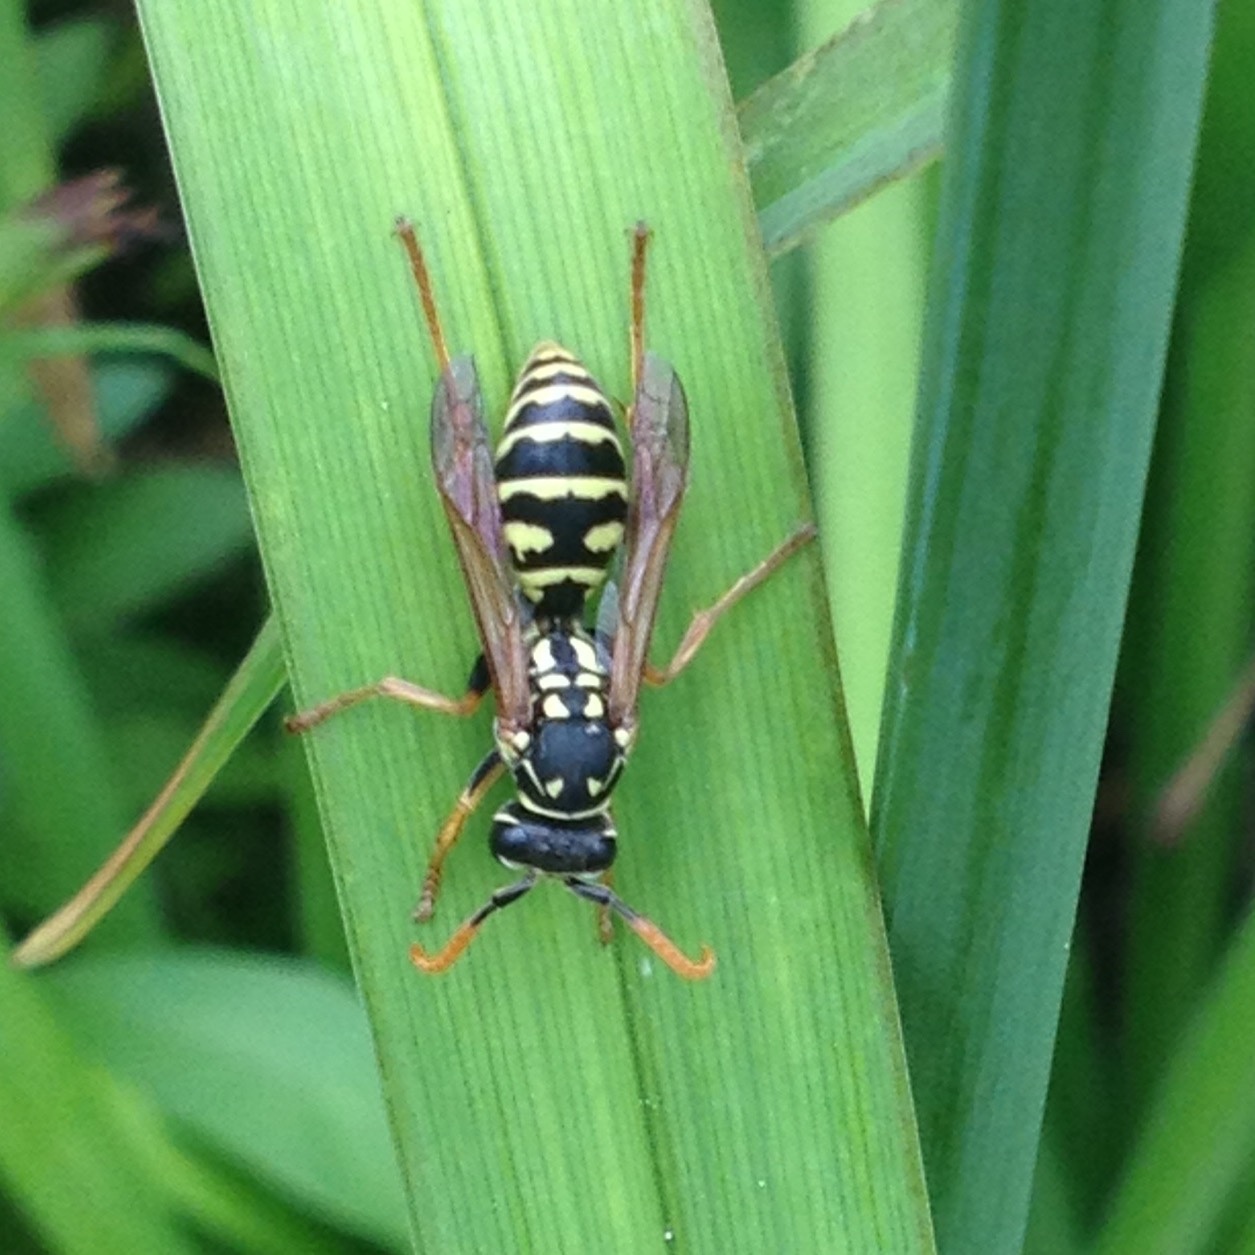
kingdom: Animalia
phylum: Arthropoda
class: Insecta
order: Hymenoptera
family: Eumenidae
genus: Polistes
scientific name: Polistes dominula
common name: Paper wasp
